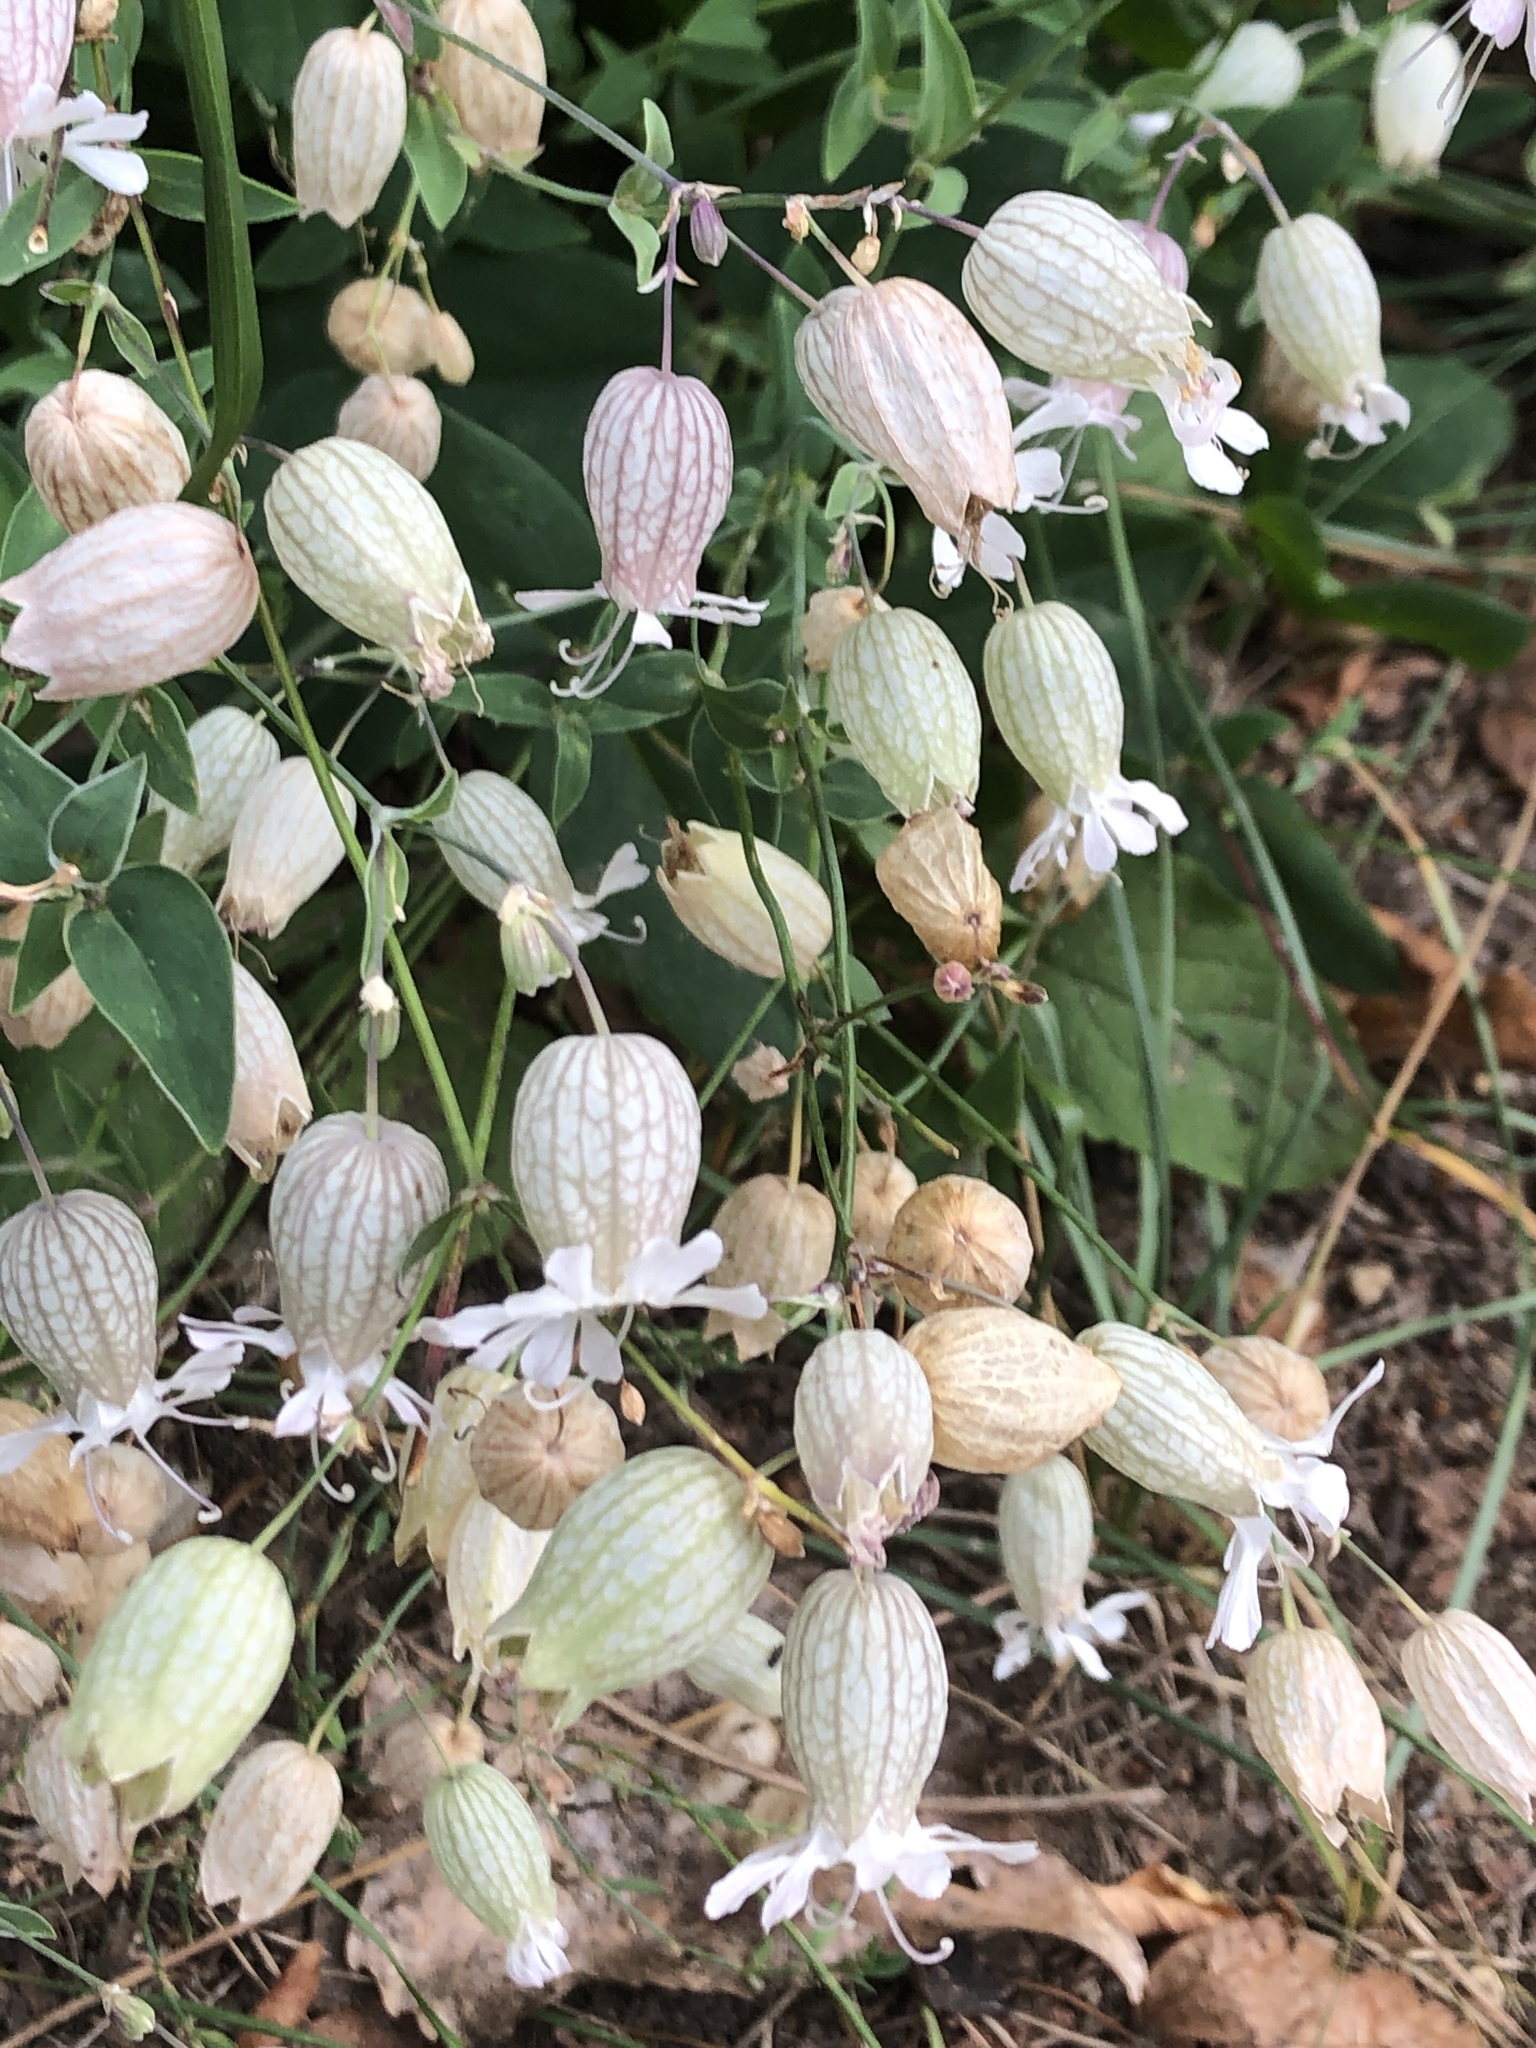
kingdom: Plantae
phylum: Tracheophyta
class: Magnoliopsida
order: Caryophyllales
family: Caryophyllaceae
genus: Silene
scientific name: Silene vulgaris
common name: Bladder campion
